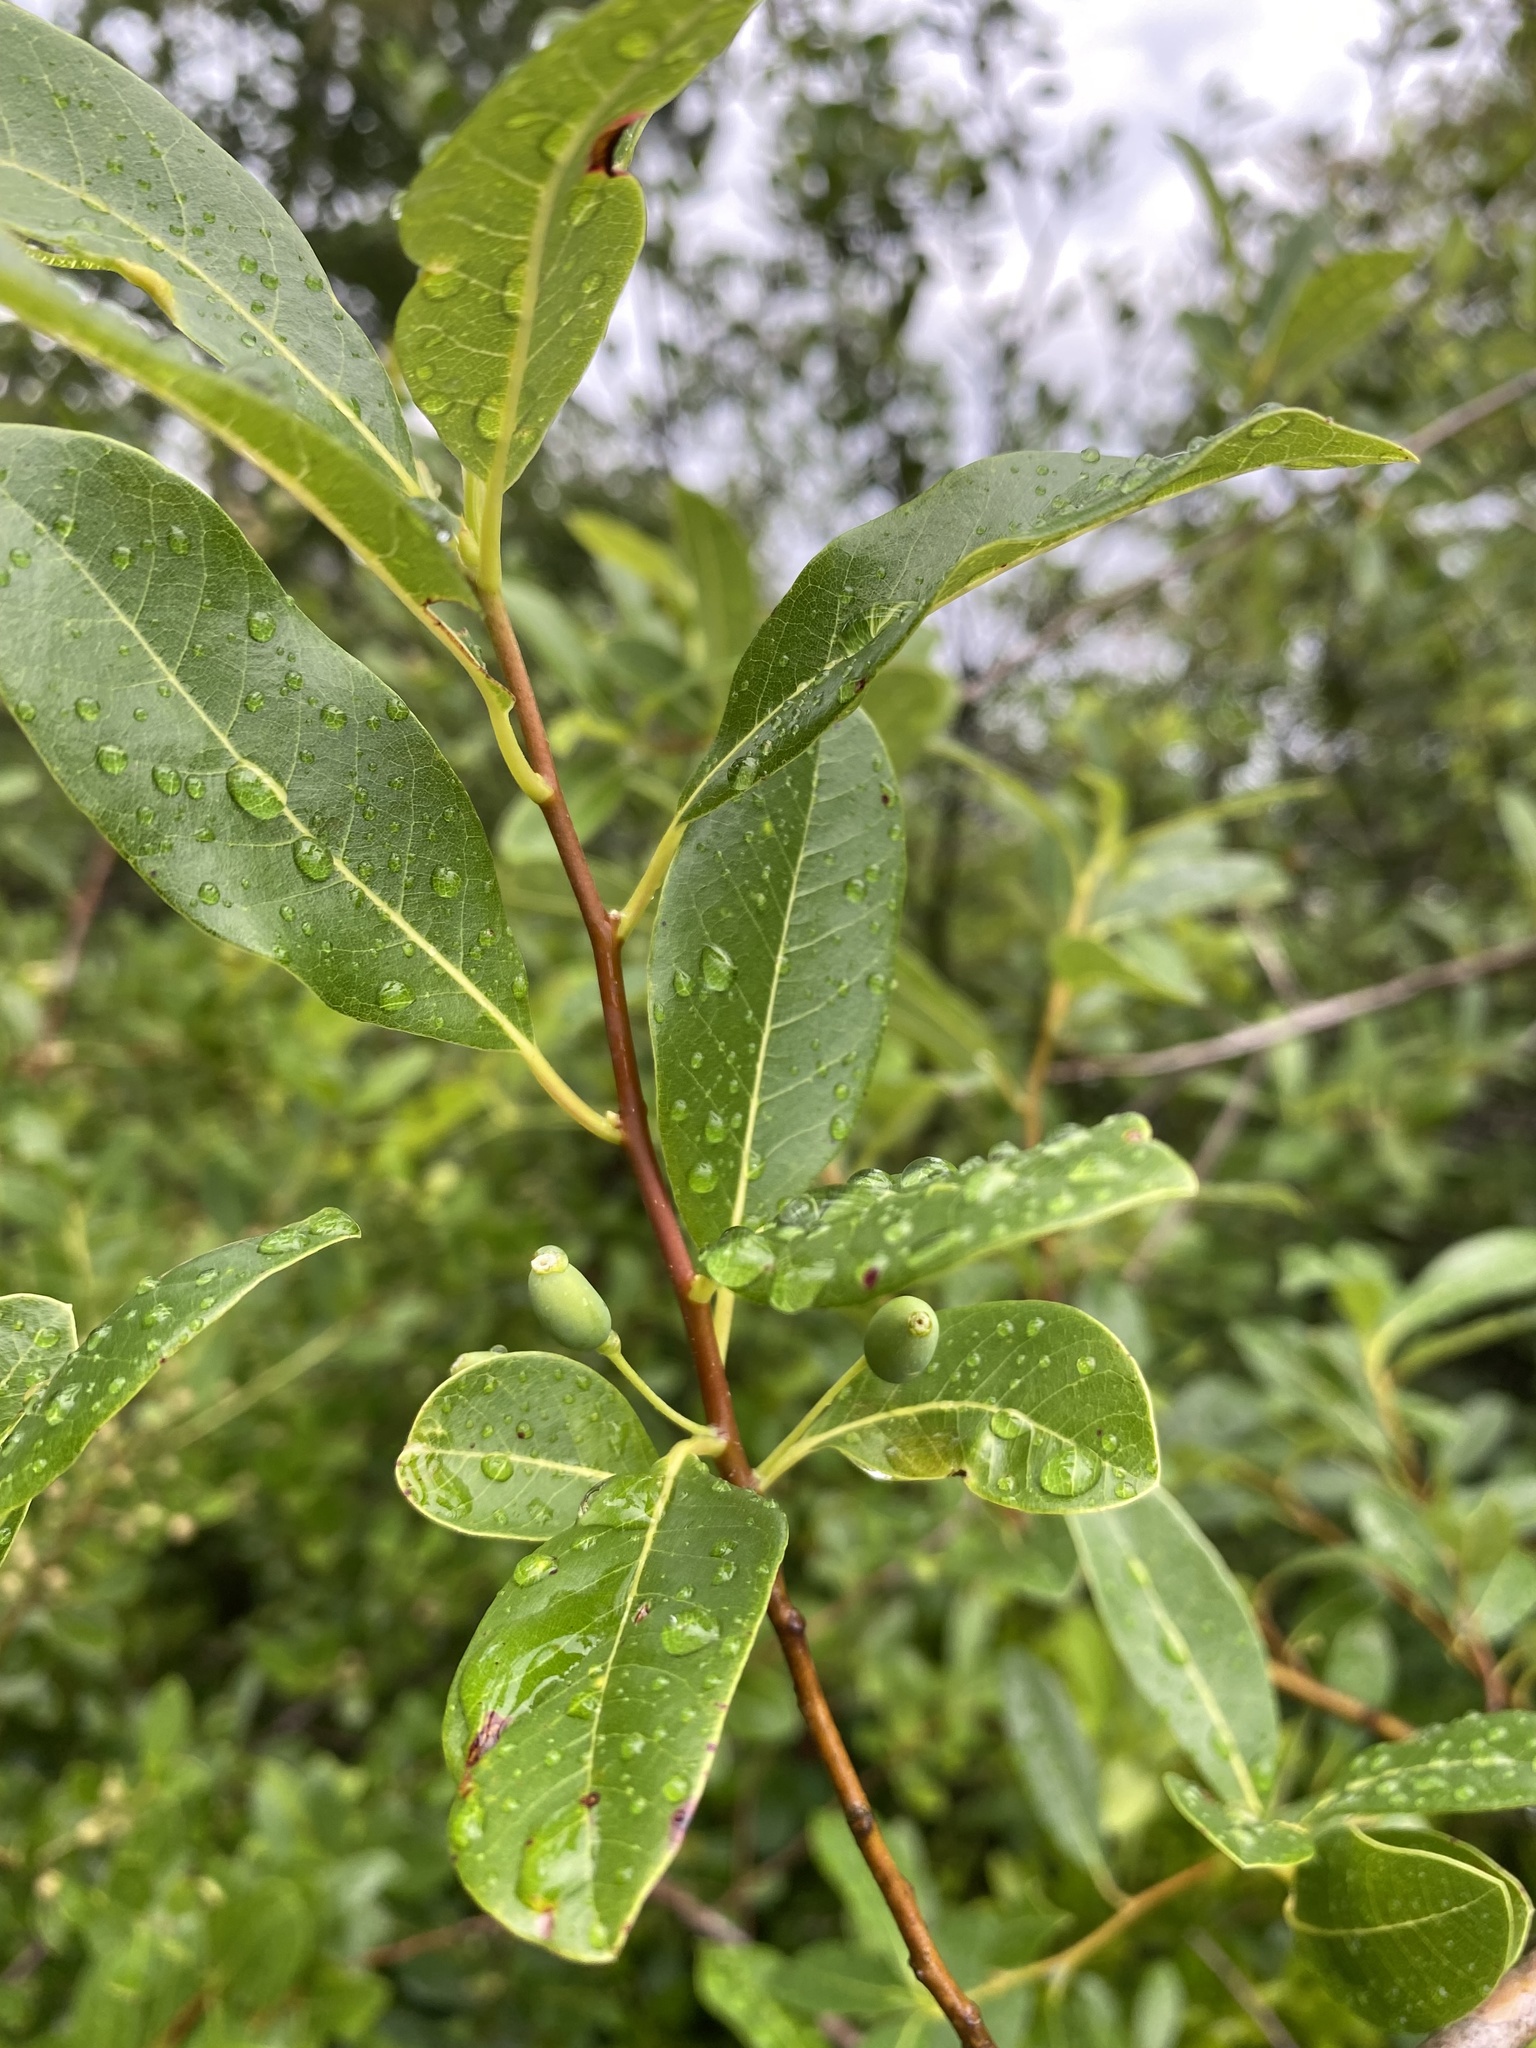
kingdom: Plantae
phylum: Tracheophyta
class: Magnoliopsida
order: Cornales
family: Nyssaceae
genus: Nyssa
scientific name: Nyssa biflora
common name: Swamp blackgum
